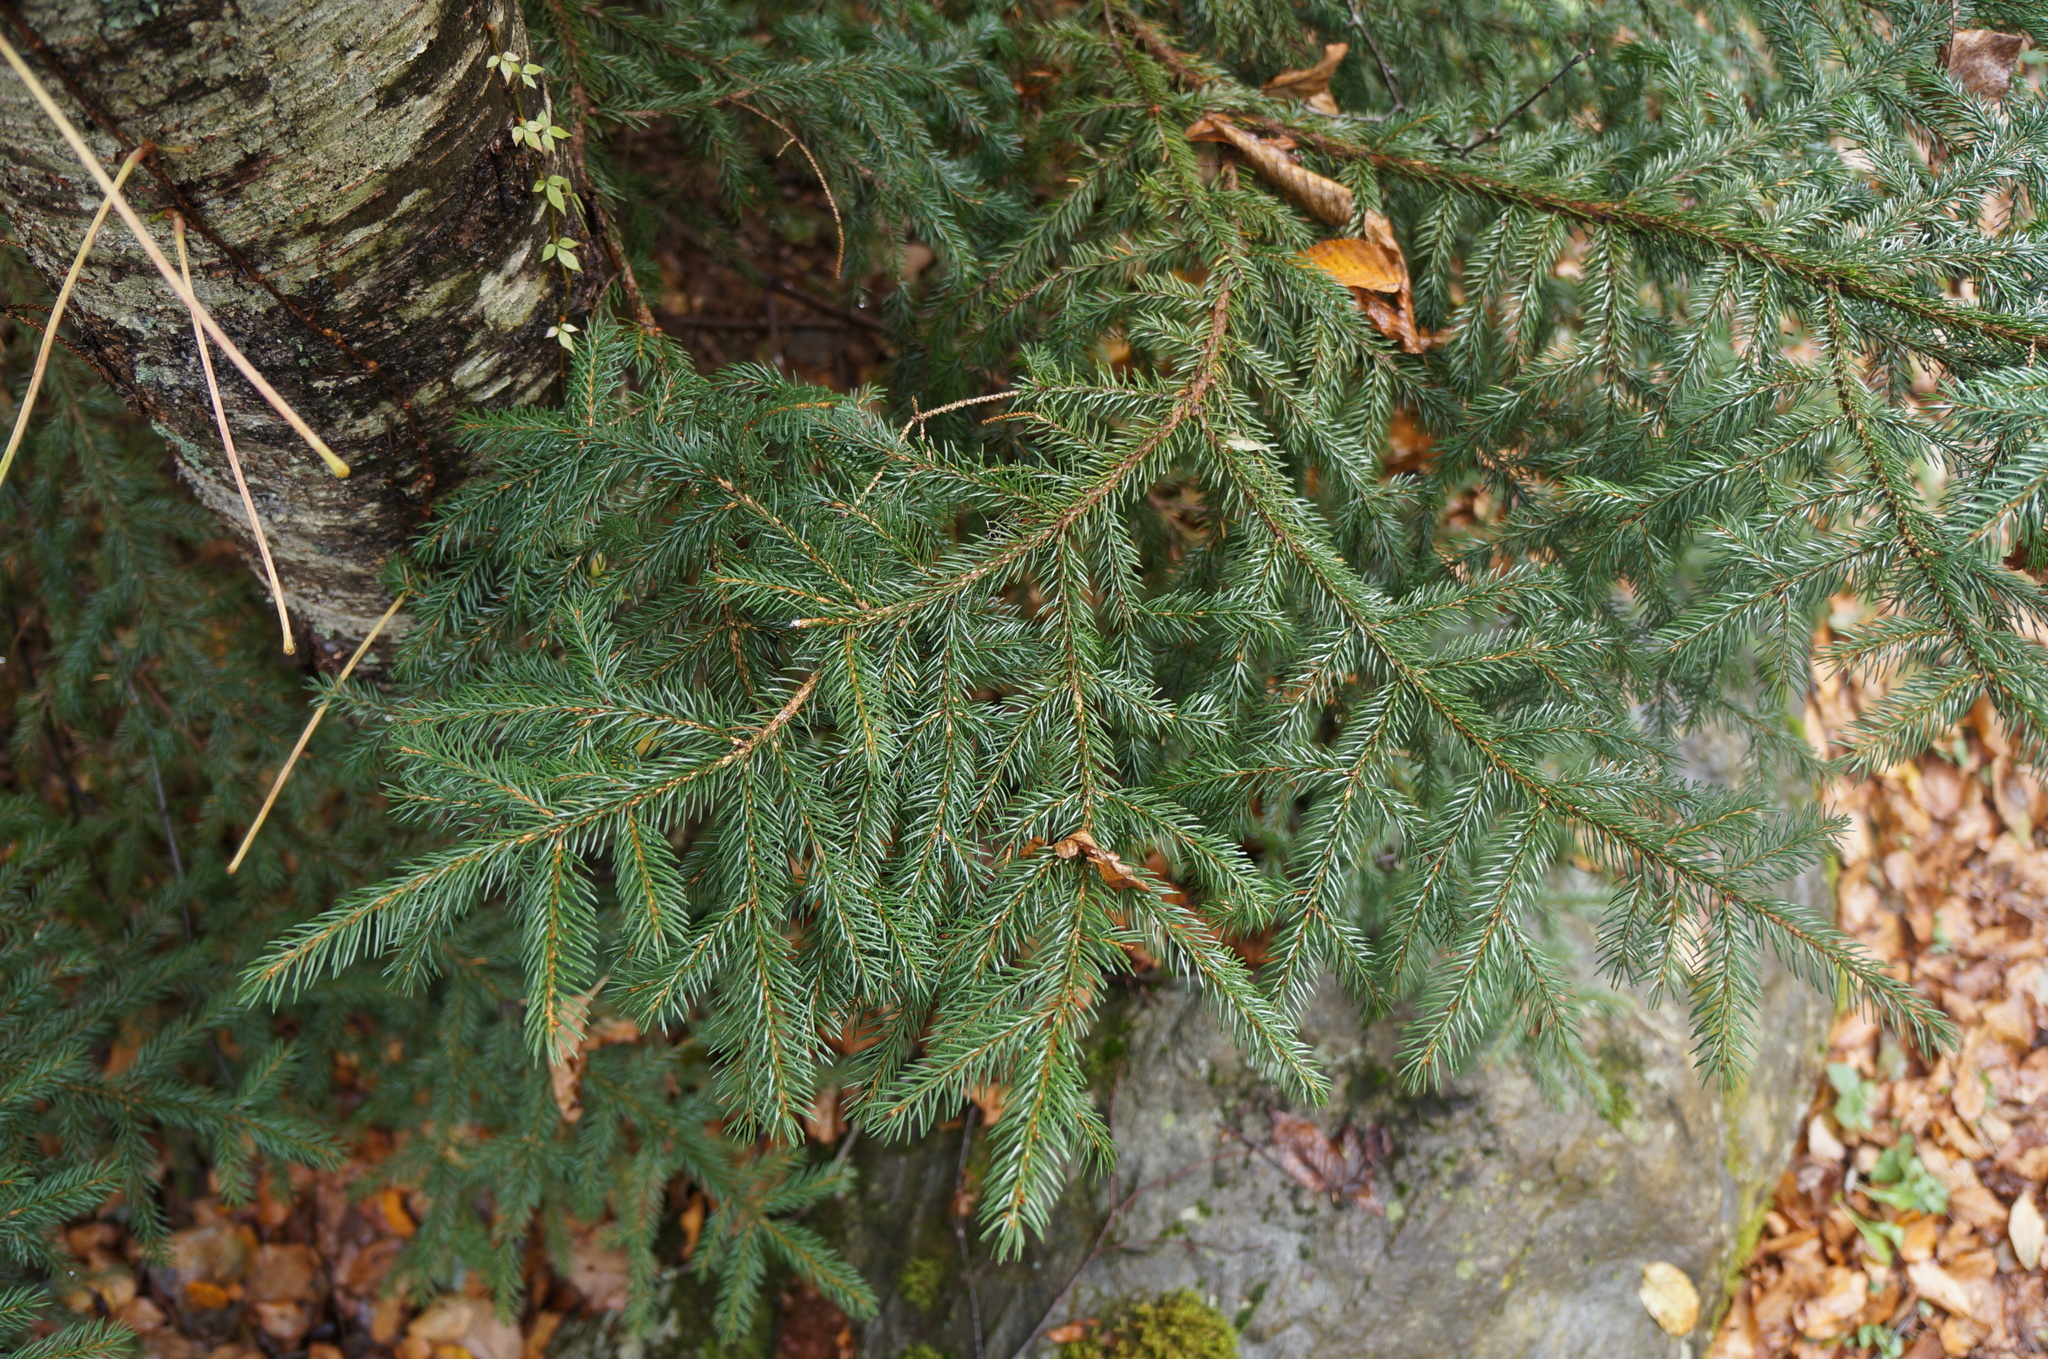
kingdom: Plantae
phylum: Tracheophyta
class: Pinopsida
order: Pinales
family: Pinaceae
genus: Picea
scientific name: Picea rubens
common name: Red spruce
